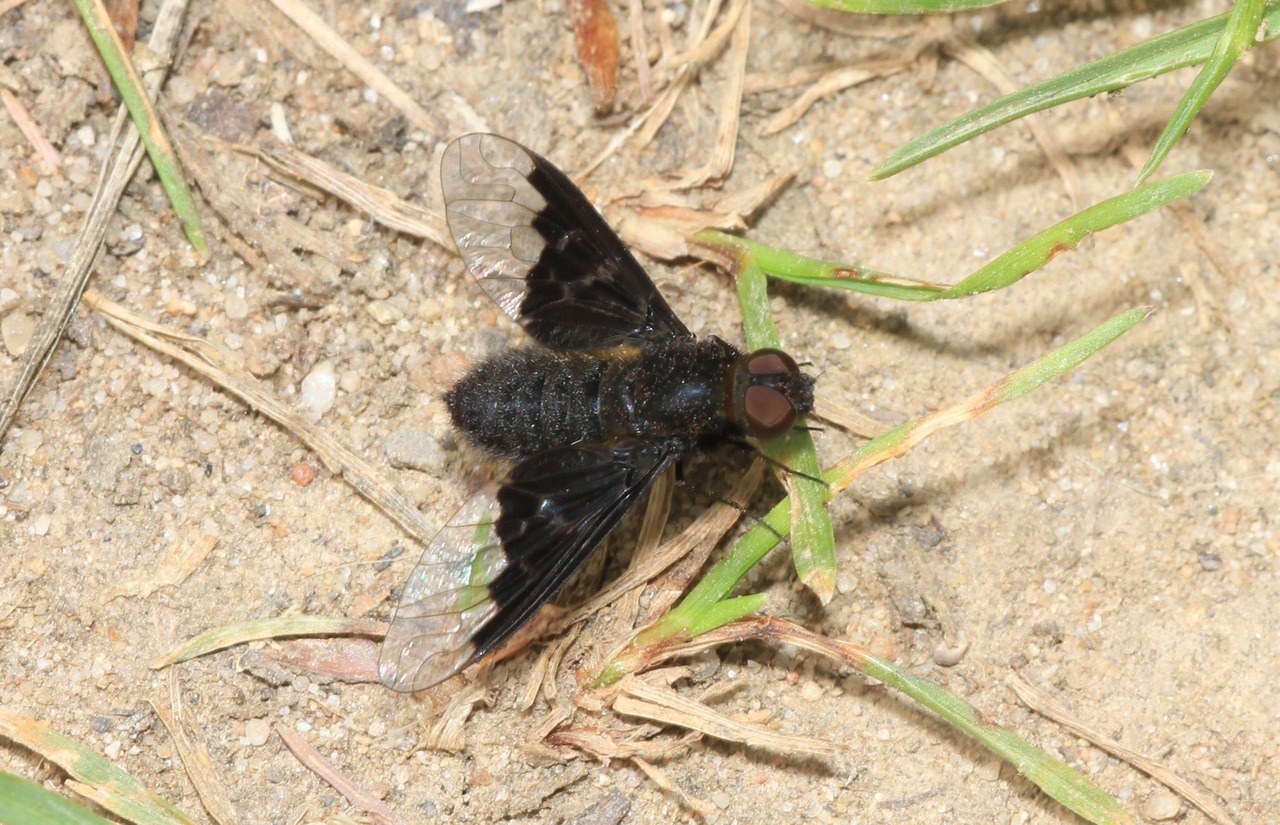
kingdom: Animalia
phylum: Arthropoda
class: Insecta
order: Diptera
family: Bombyliidae
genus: Hemipenthes
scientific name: Hemipenthes morio
